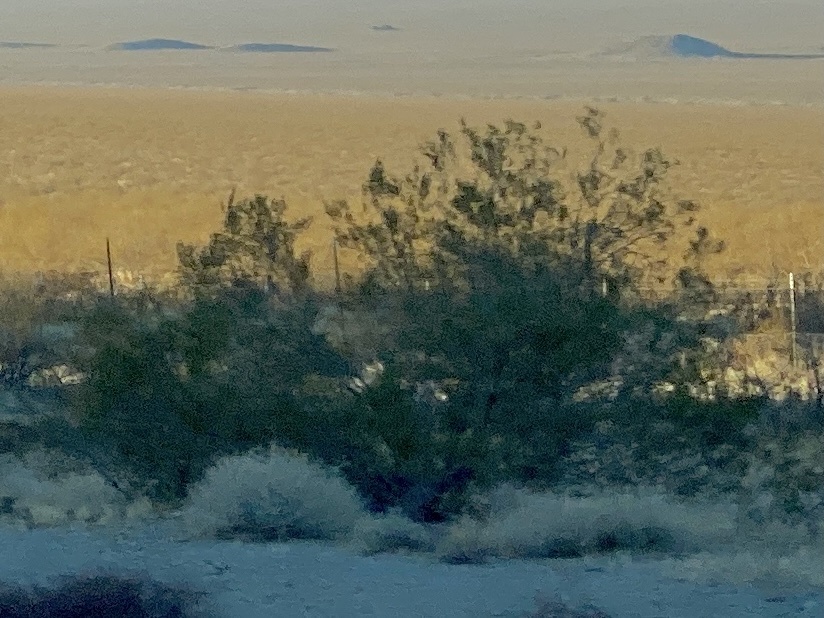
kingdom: Plantae
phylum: Tracheophyta
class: Magnoliopsida
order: Zygophyllales
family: Zygophyllaceae
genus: Larrea
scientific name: Larrea tridentata
